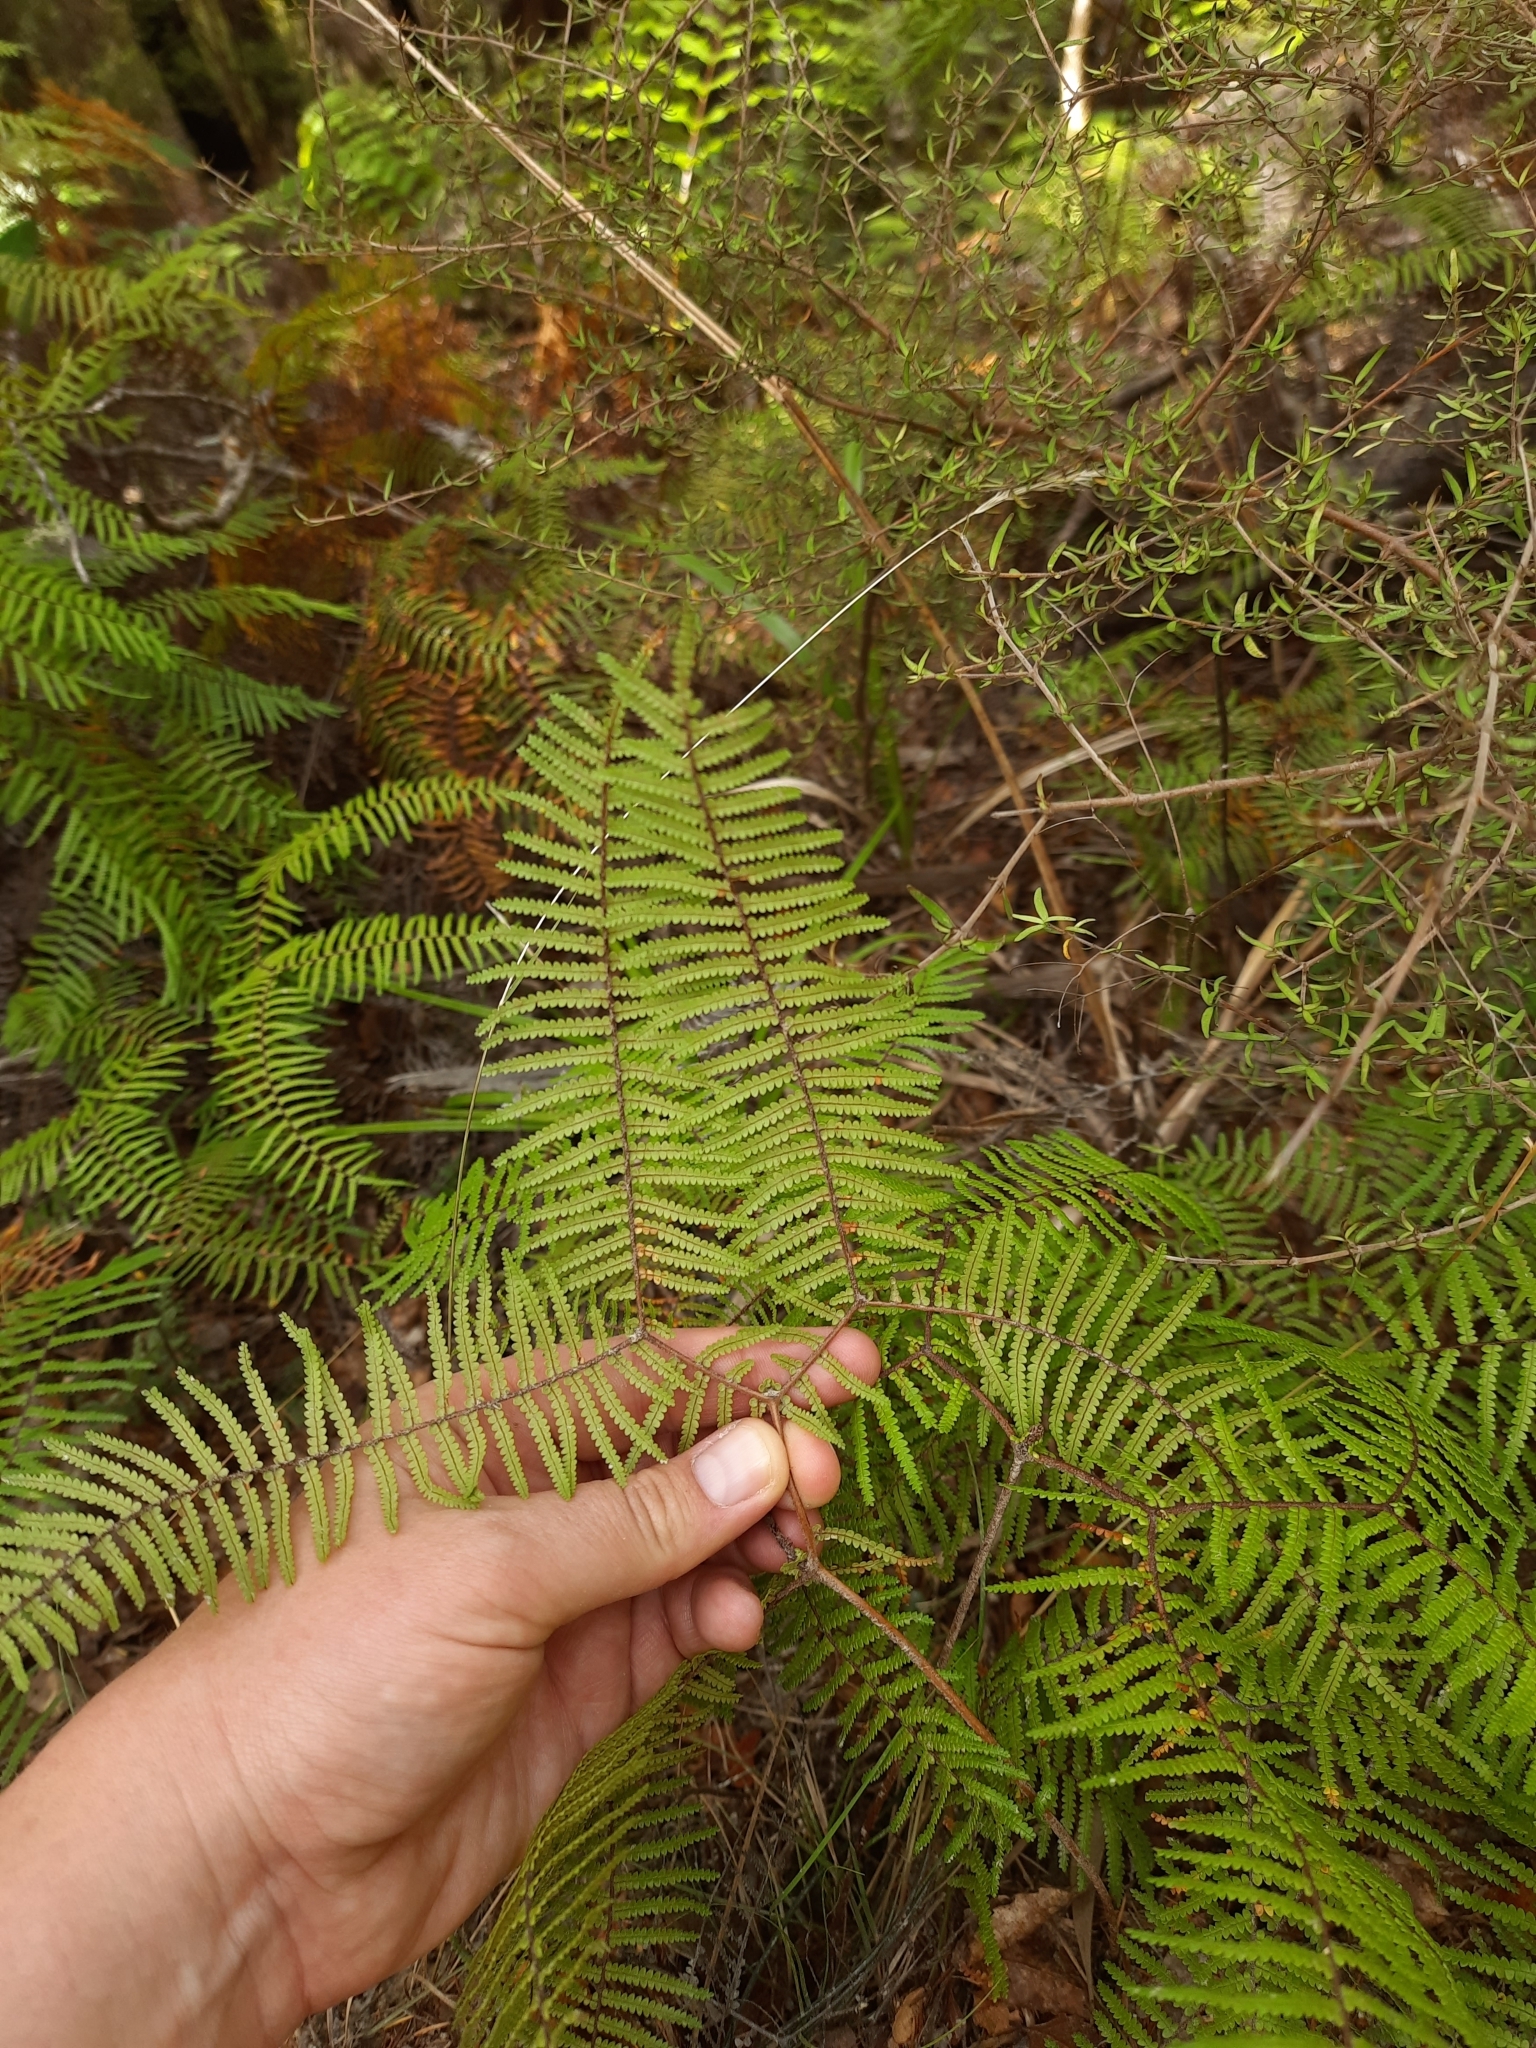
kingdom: Plantae
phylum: Tracheophyta
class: Polypodiopsida
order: Gleicheniales
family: Gleicheniaceae
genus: Gleichenia
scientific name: Gleichenia microphylla
